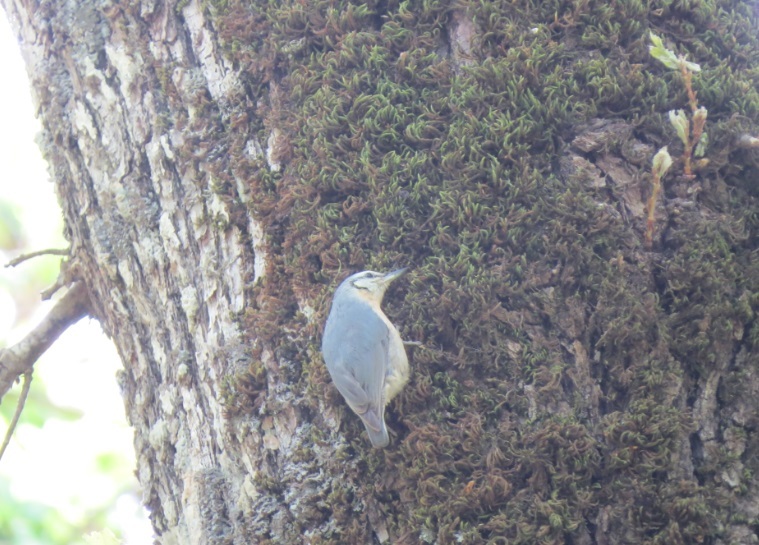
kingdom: Animalia
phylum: Chordata
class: Aves
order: Passeriformes
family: Sittidae
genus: Sitta
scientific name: Sitta ledanti
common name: Algerian nuthatch
